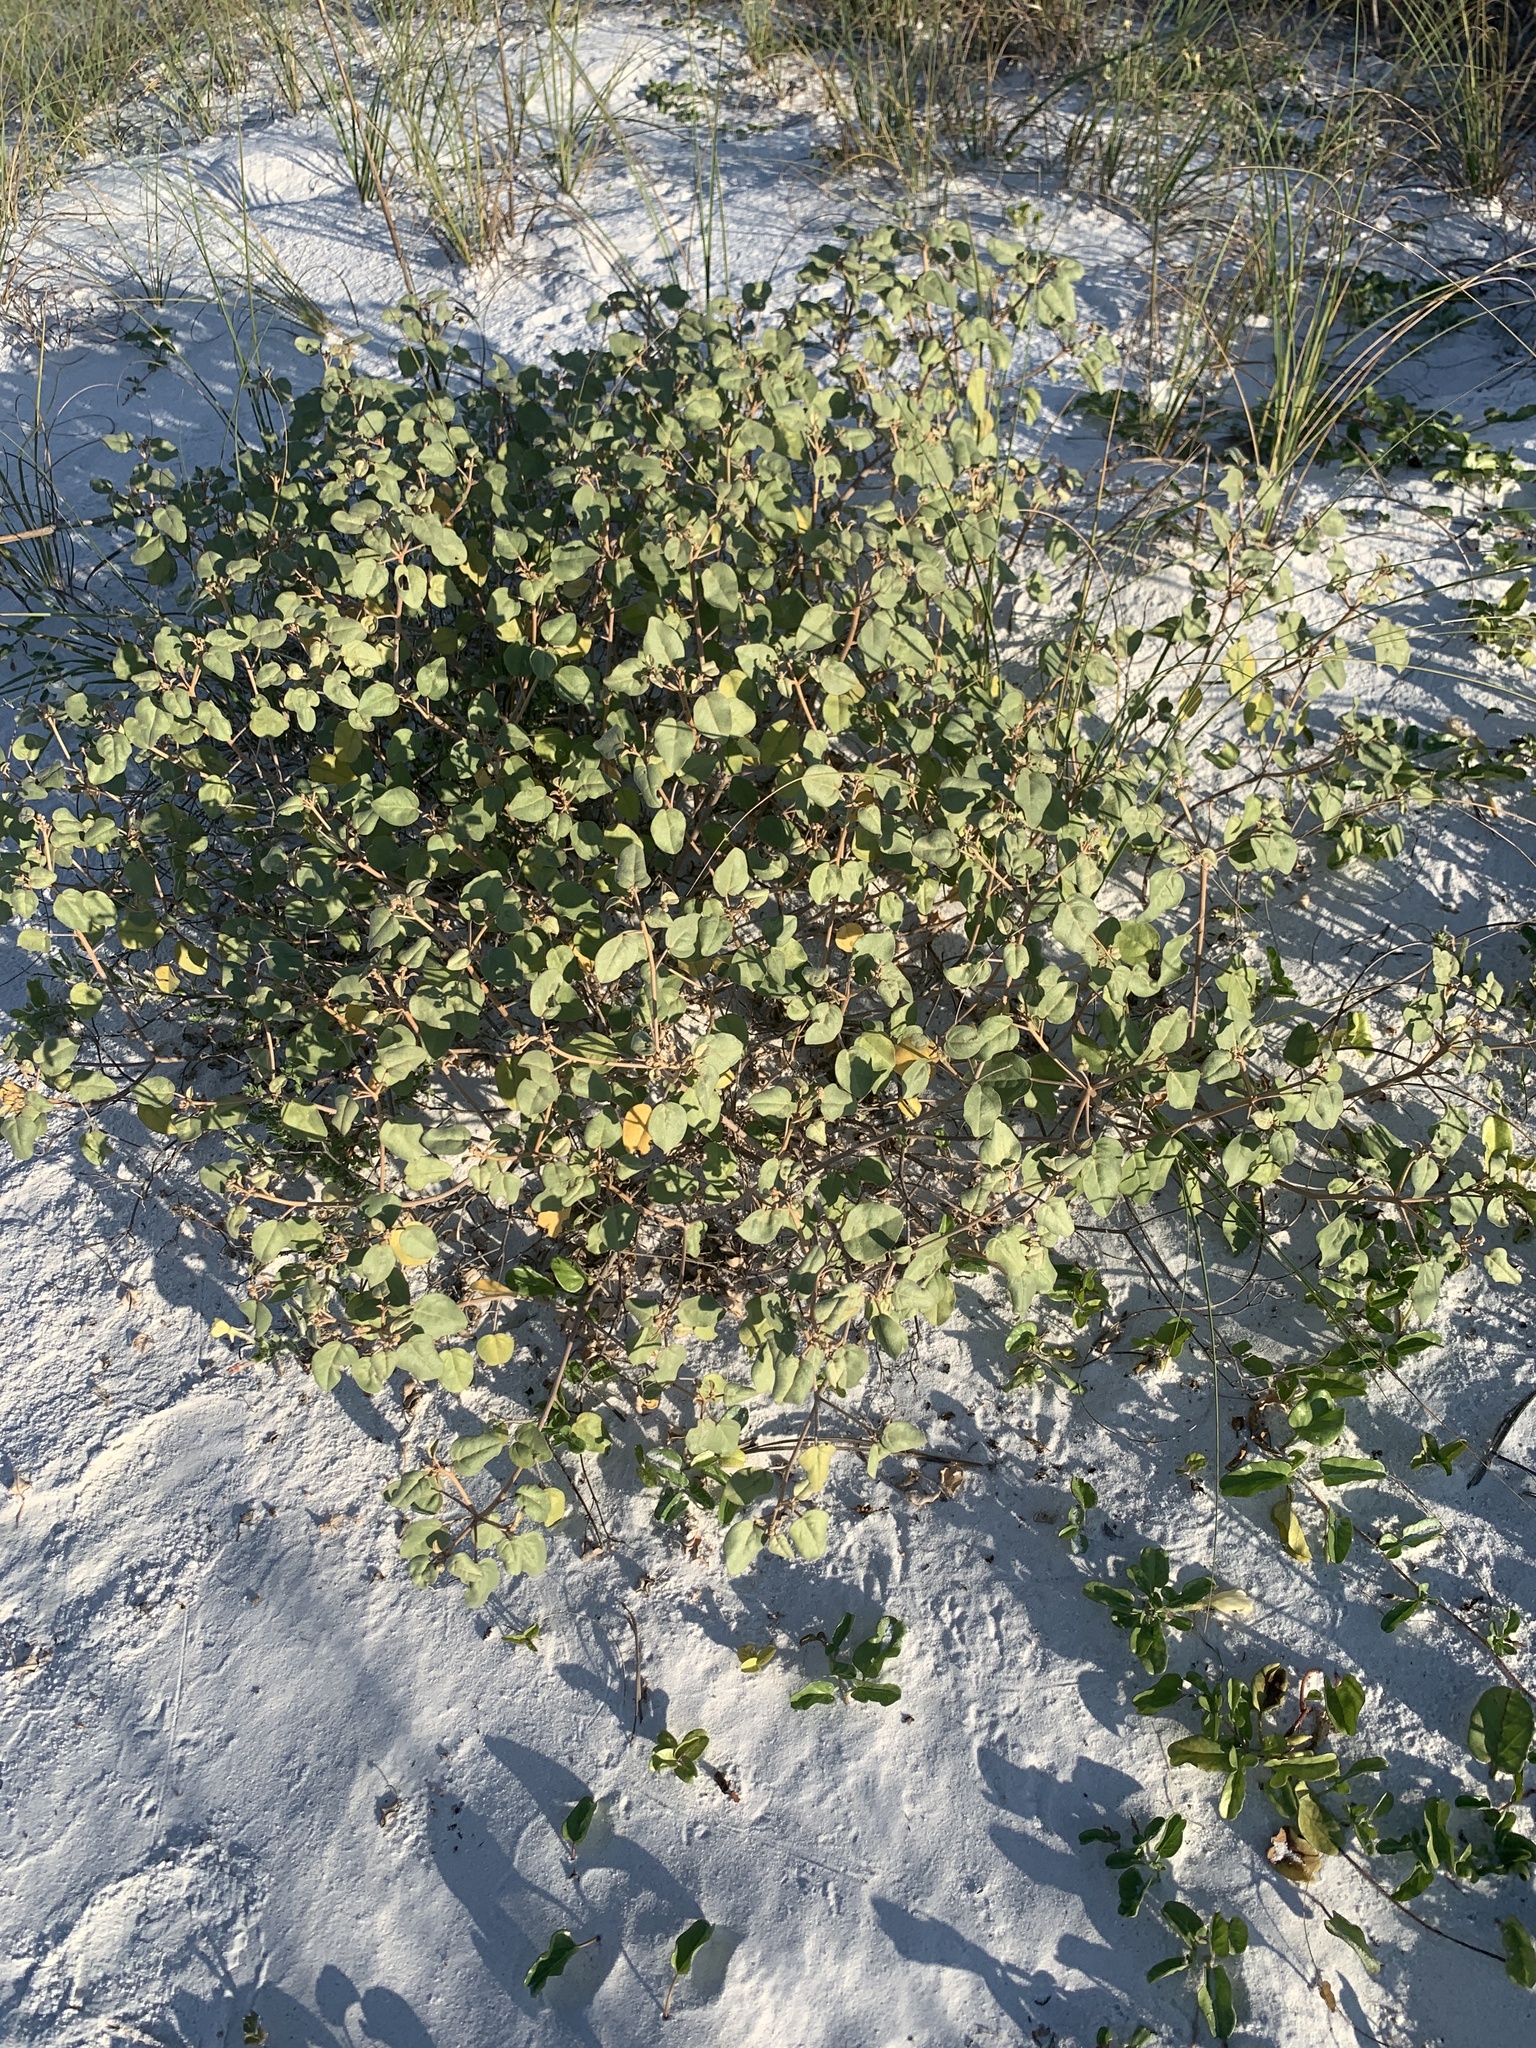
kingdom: Plantae
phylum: Tracheophyta
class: Magnoliopsida
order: Malpighiales
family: Euphorbiaceae
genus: Croton
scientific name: Croton punctatus
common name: Beach-tea
